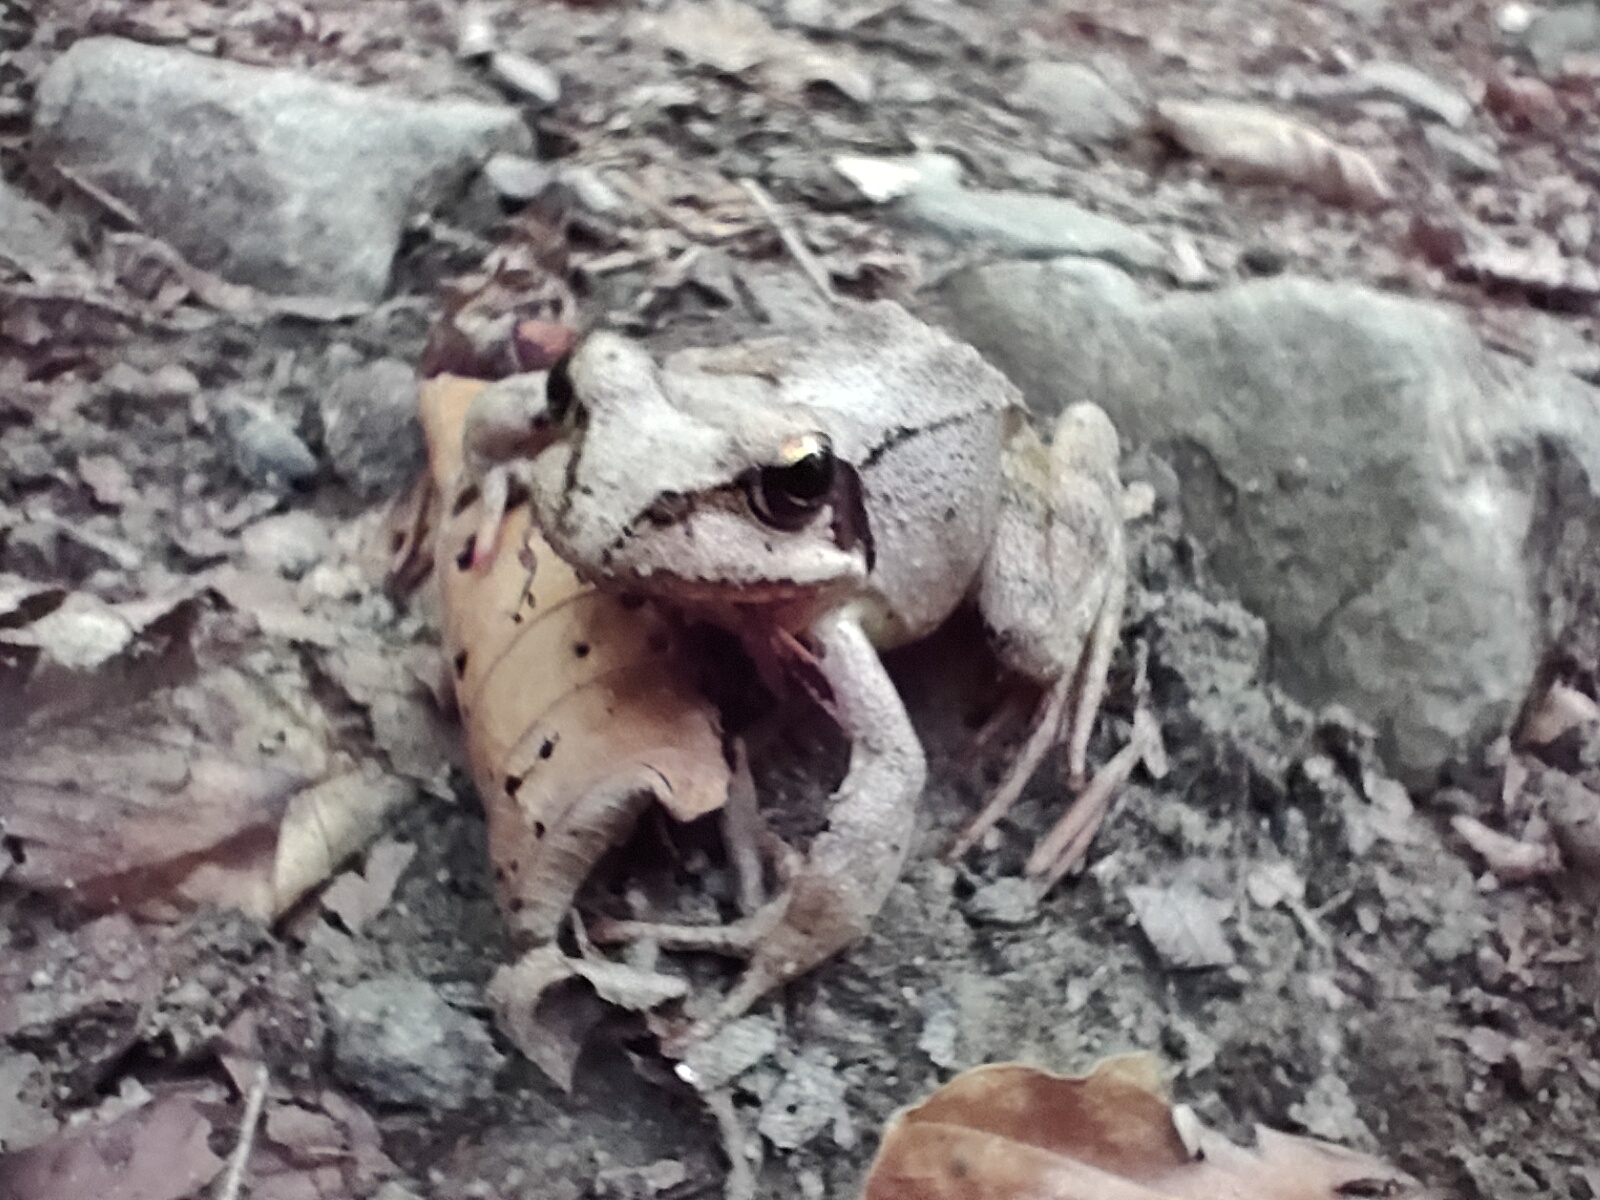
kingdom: Animalia
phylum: Chordata
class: Amphibia
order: Anura
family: Ranidae
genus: Rana
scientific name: Rana temporaria
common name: Common frog
